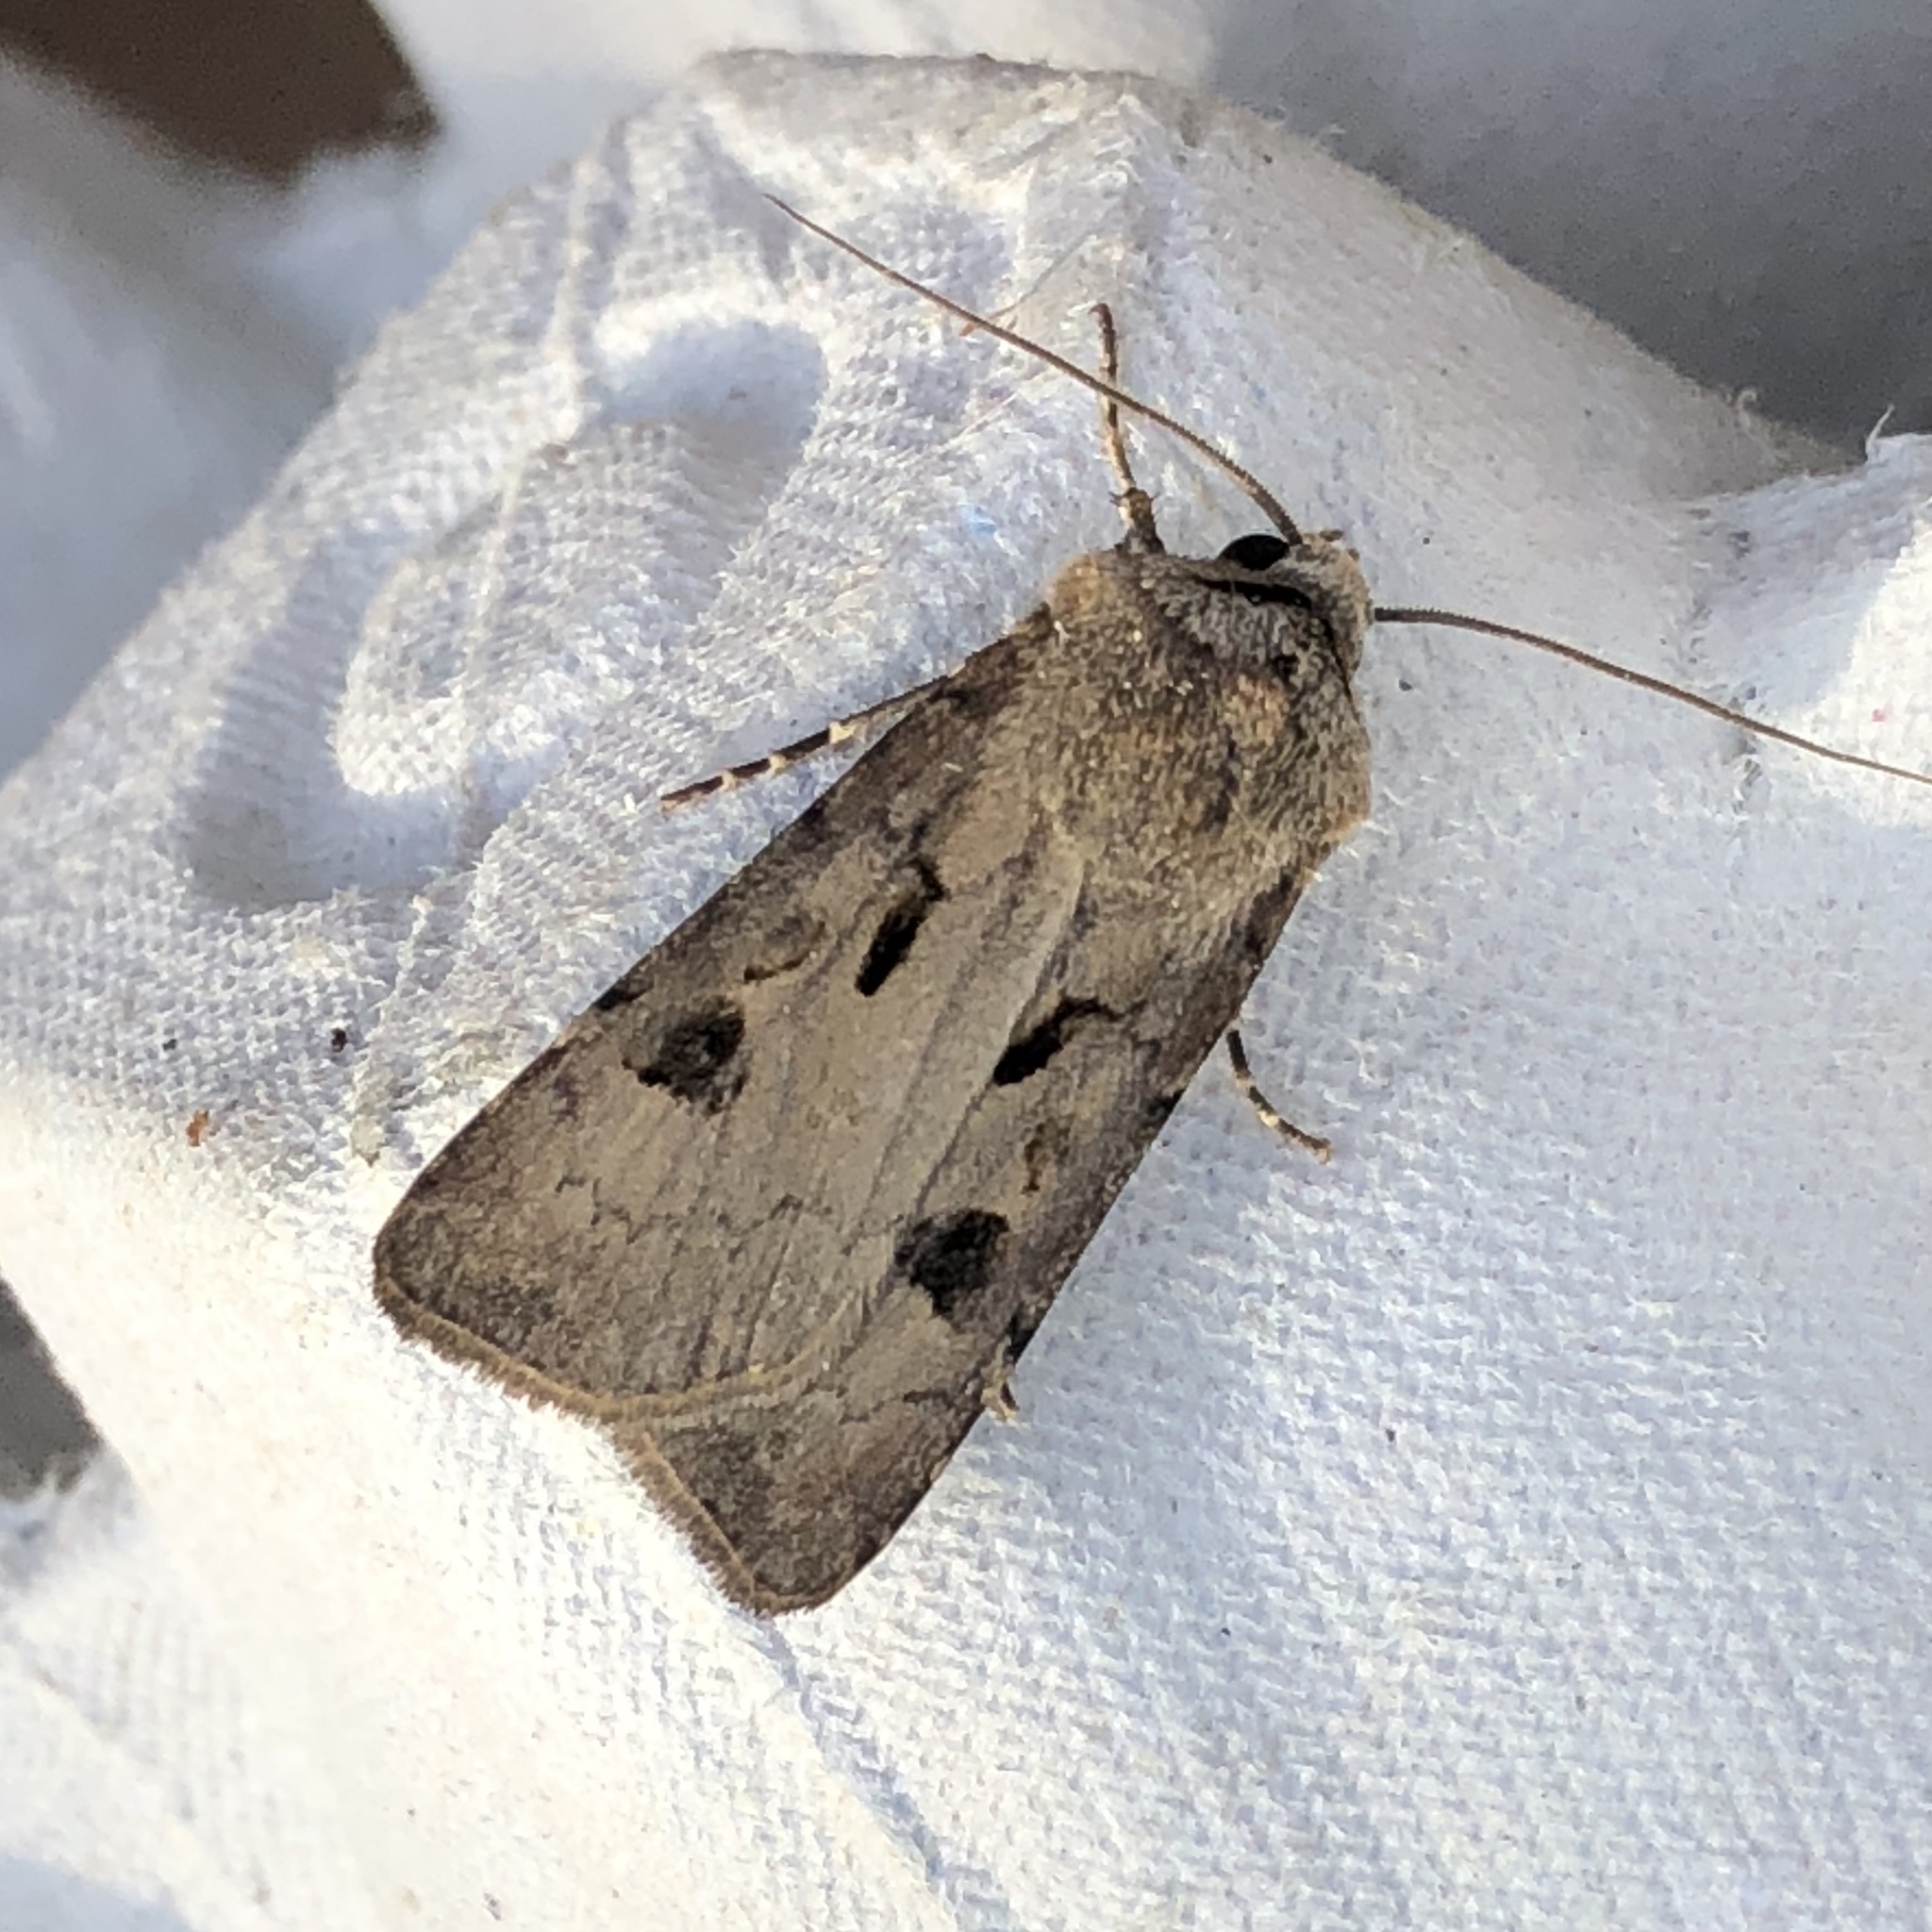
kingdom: Animalia
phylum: Arthropoda
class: Insecta
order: Lepidoptera
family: Noctuidae
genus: Agrotis
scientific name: Agrotis exclamationis
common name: Heart and dart
